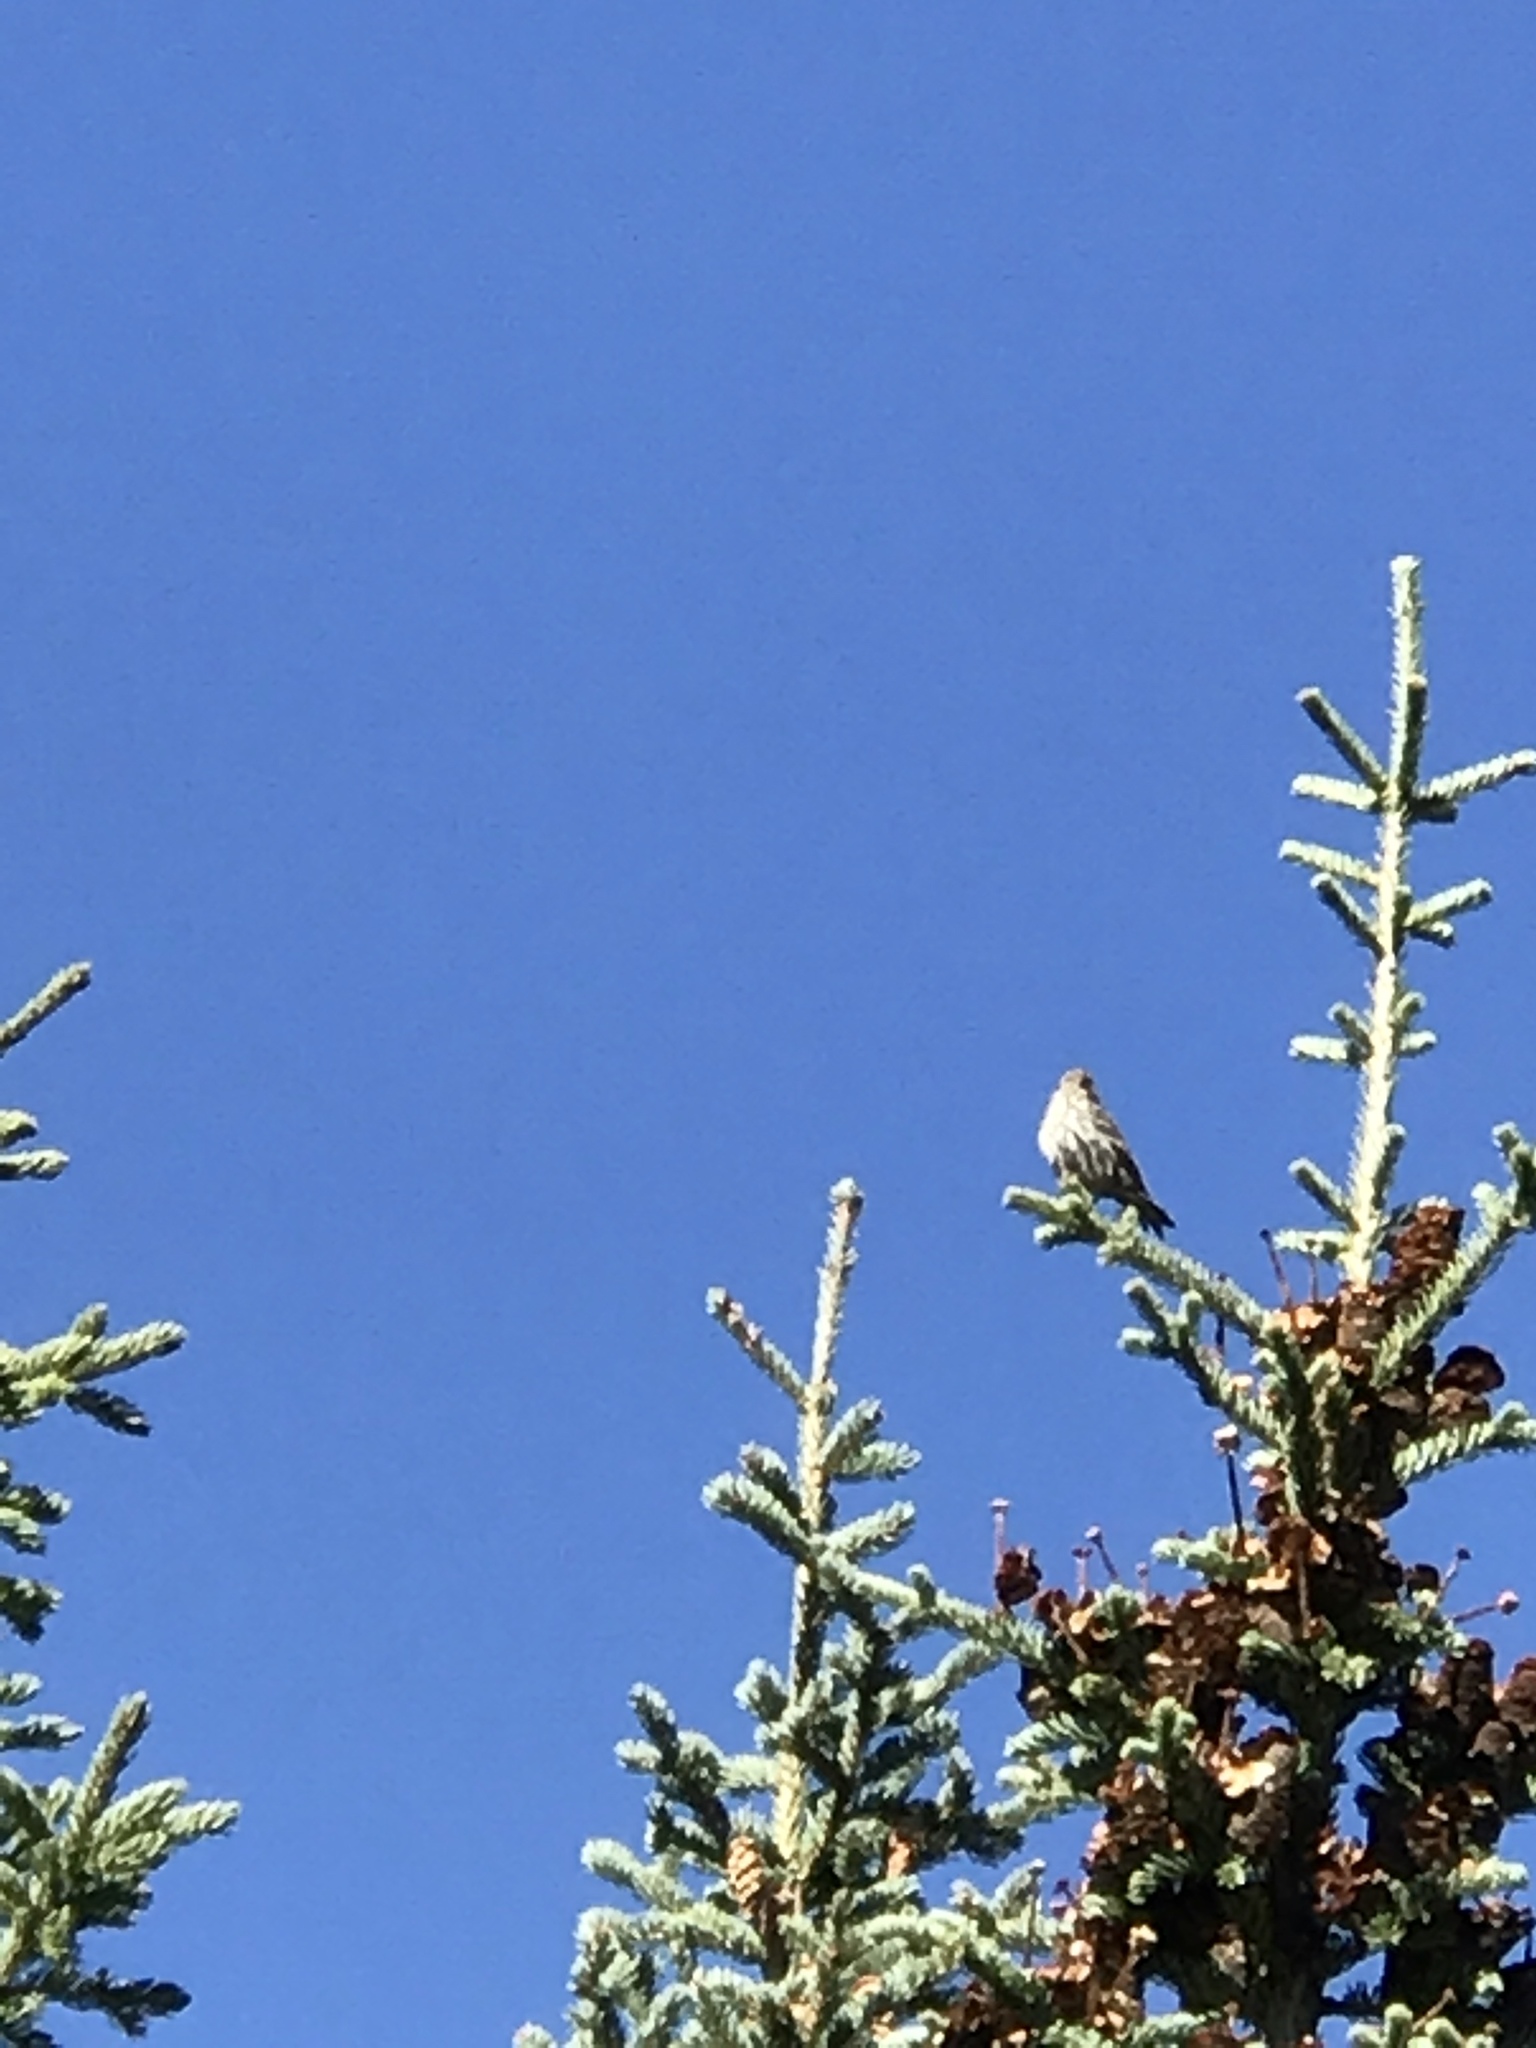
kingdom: Animalia
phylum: Chordata
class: Aves
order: Passeriformes
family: Fringillidae
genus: Spinus
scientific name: Spinus pinus
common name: Pine siskin
